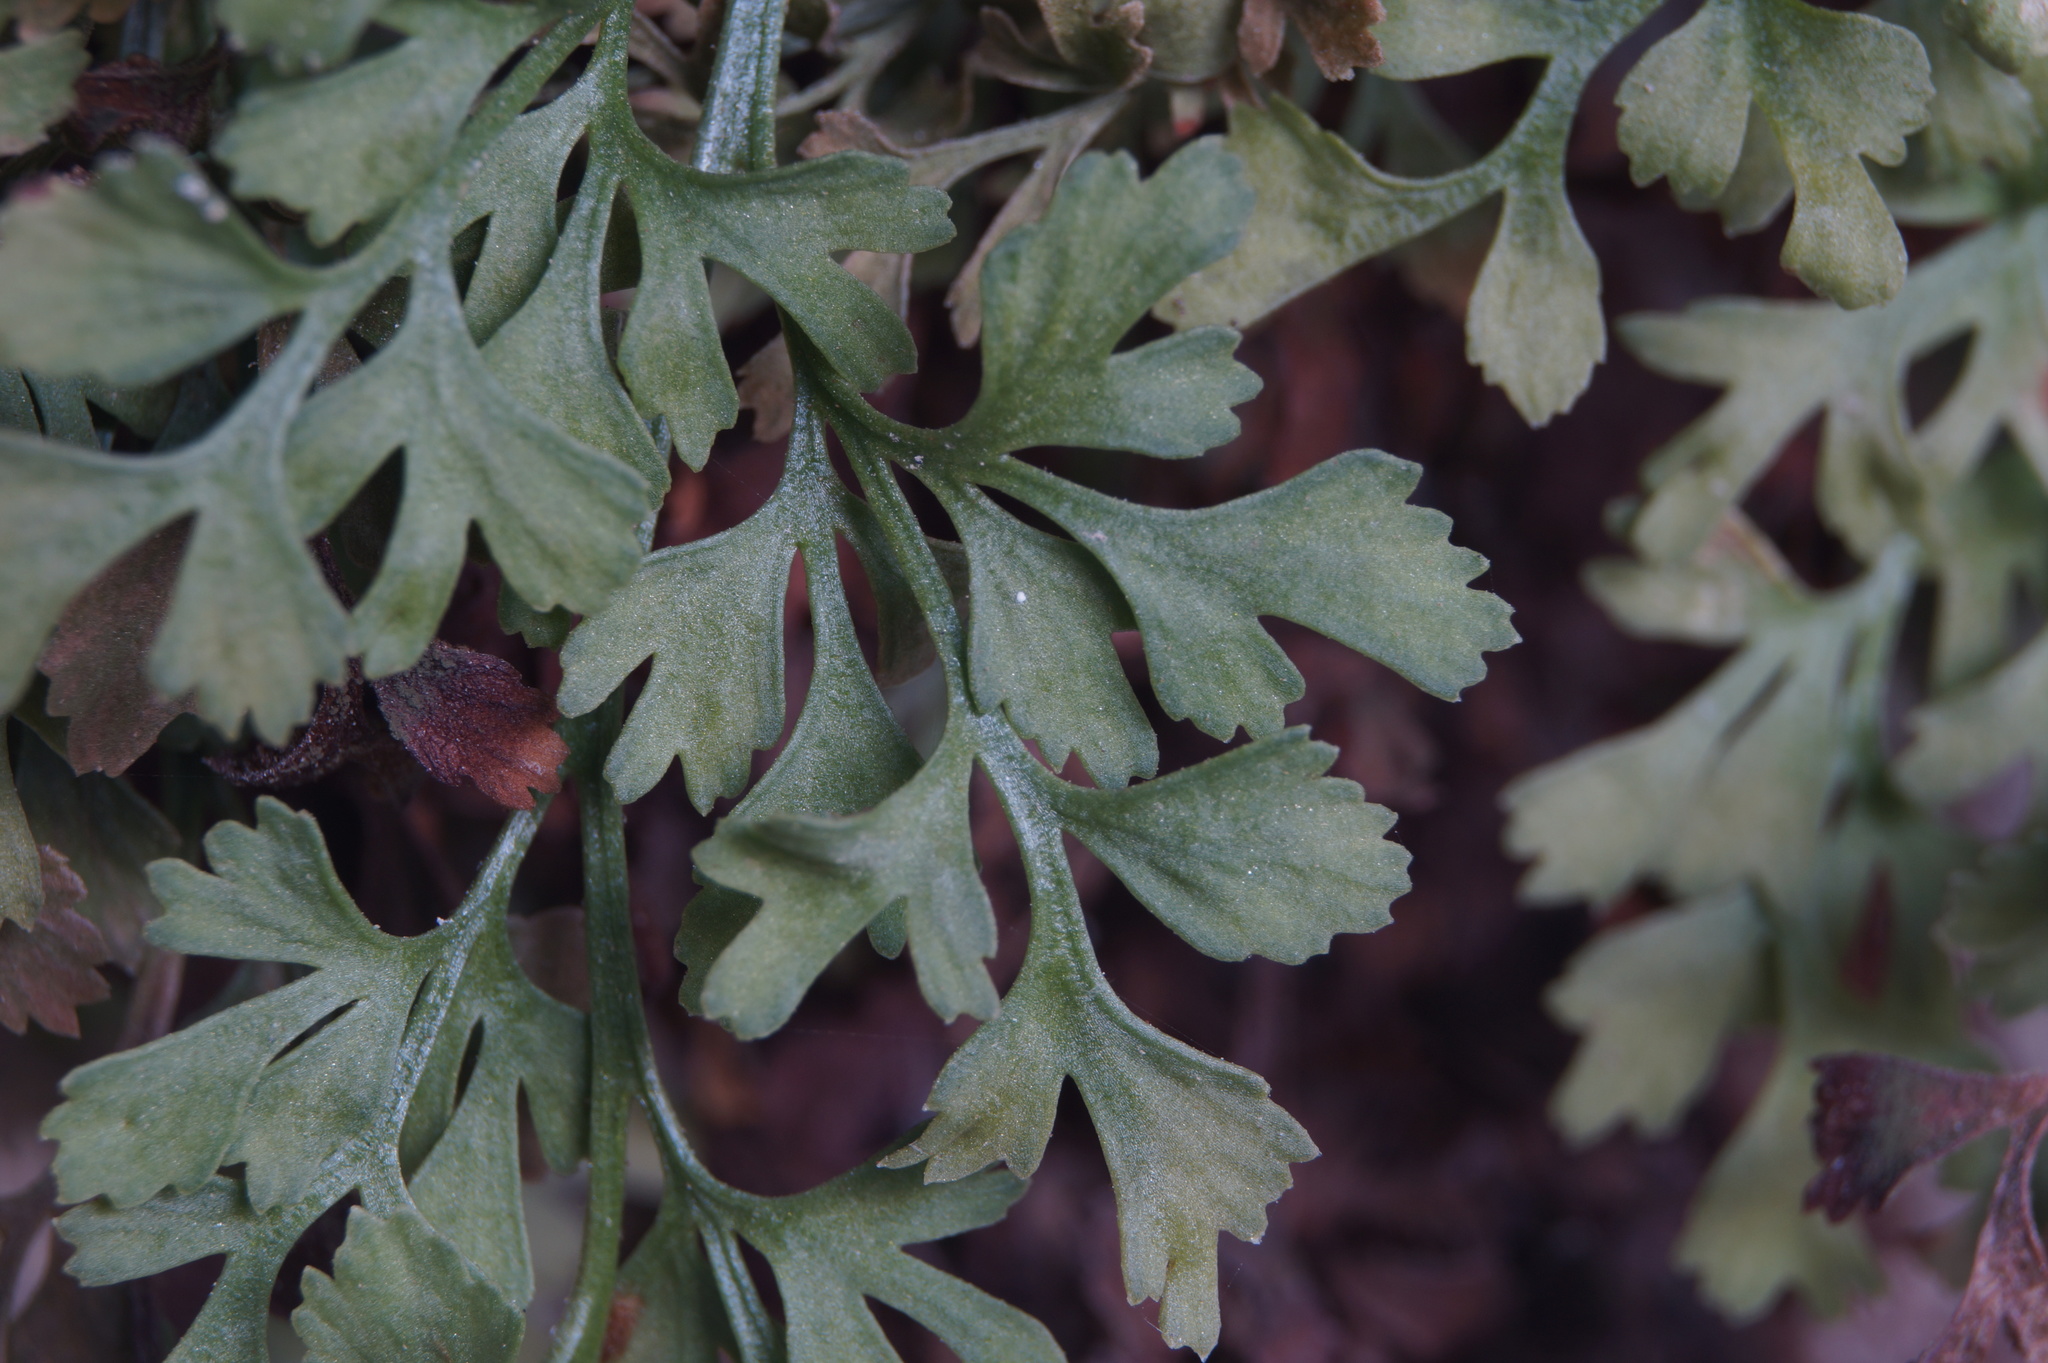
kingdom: Plantae
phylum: Tracheophyta
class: Polypodiopsida
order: Polypodiales
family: Aspleniaceae
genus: Asplenium
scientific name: Asplenium ruta-muraria
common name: Wall-rue
